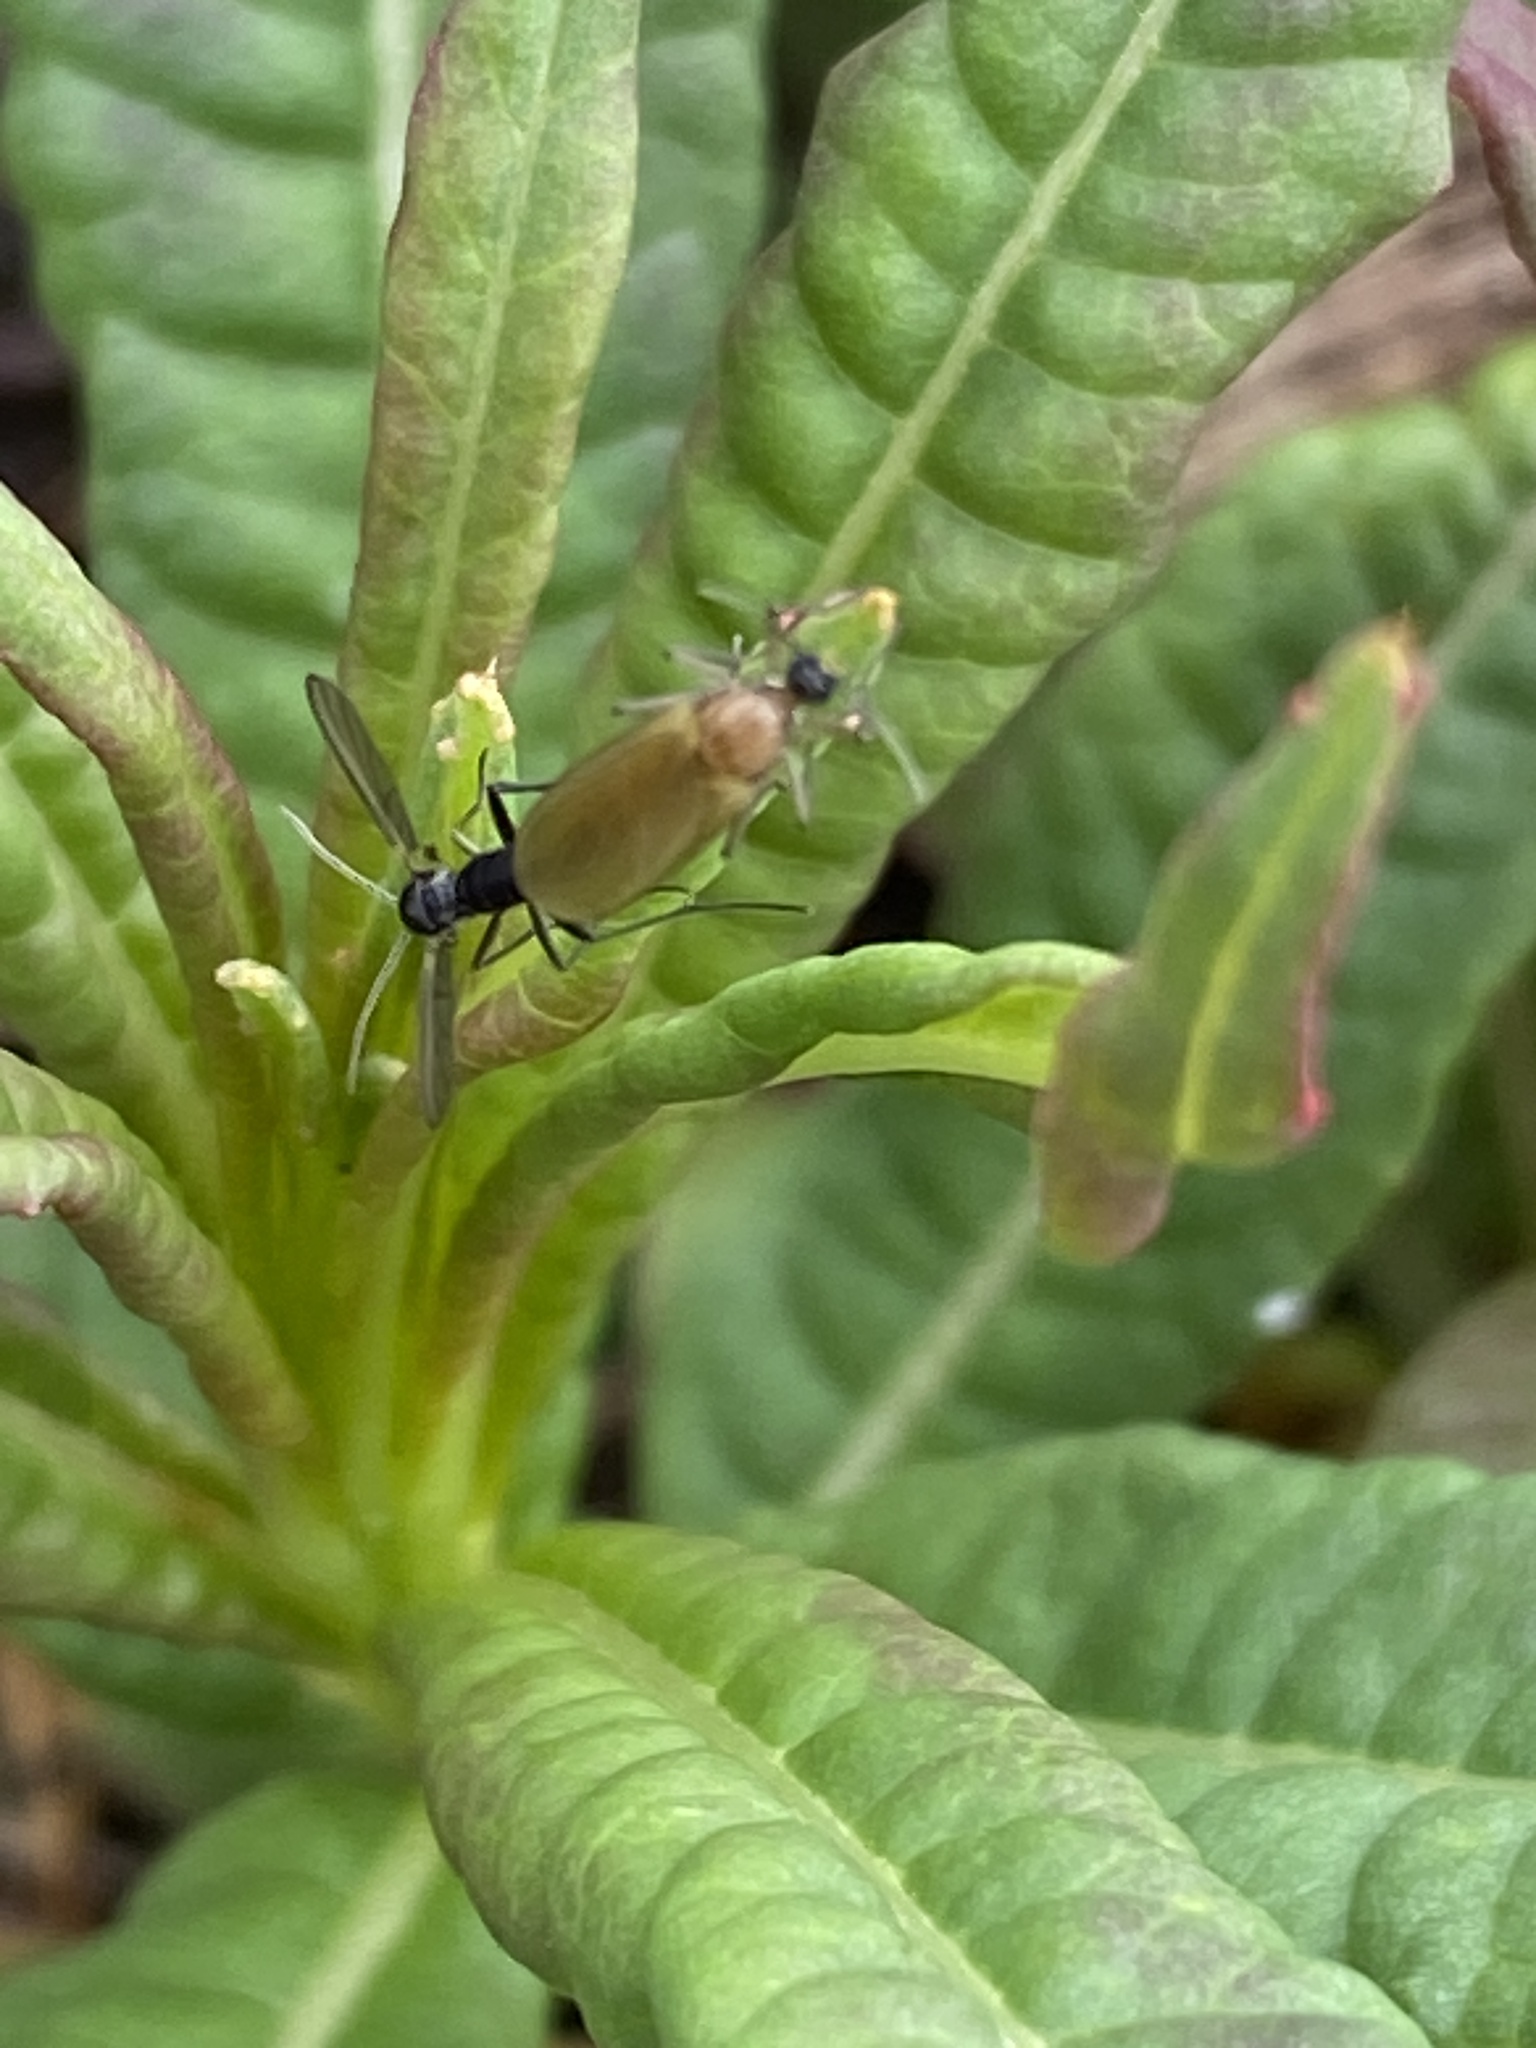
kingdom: Animalia
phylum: Arthropoda
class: Insecta
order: Coleoptera
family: Tenebrionidae
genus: Lagria
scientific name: Lagria hirta
